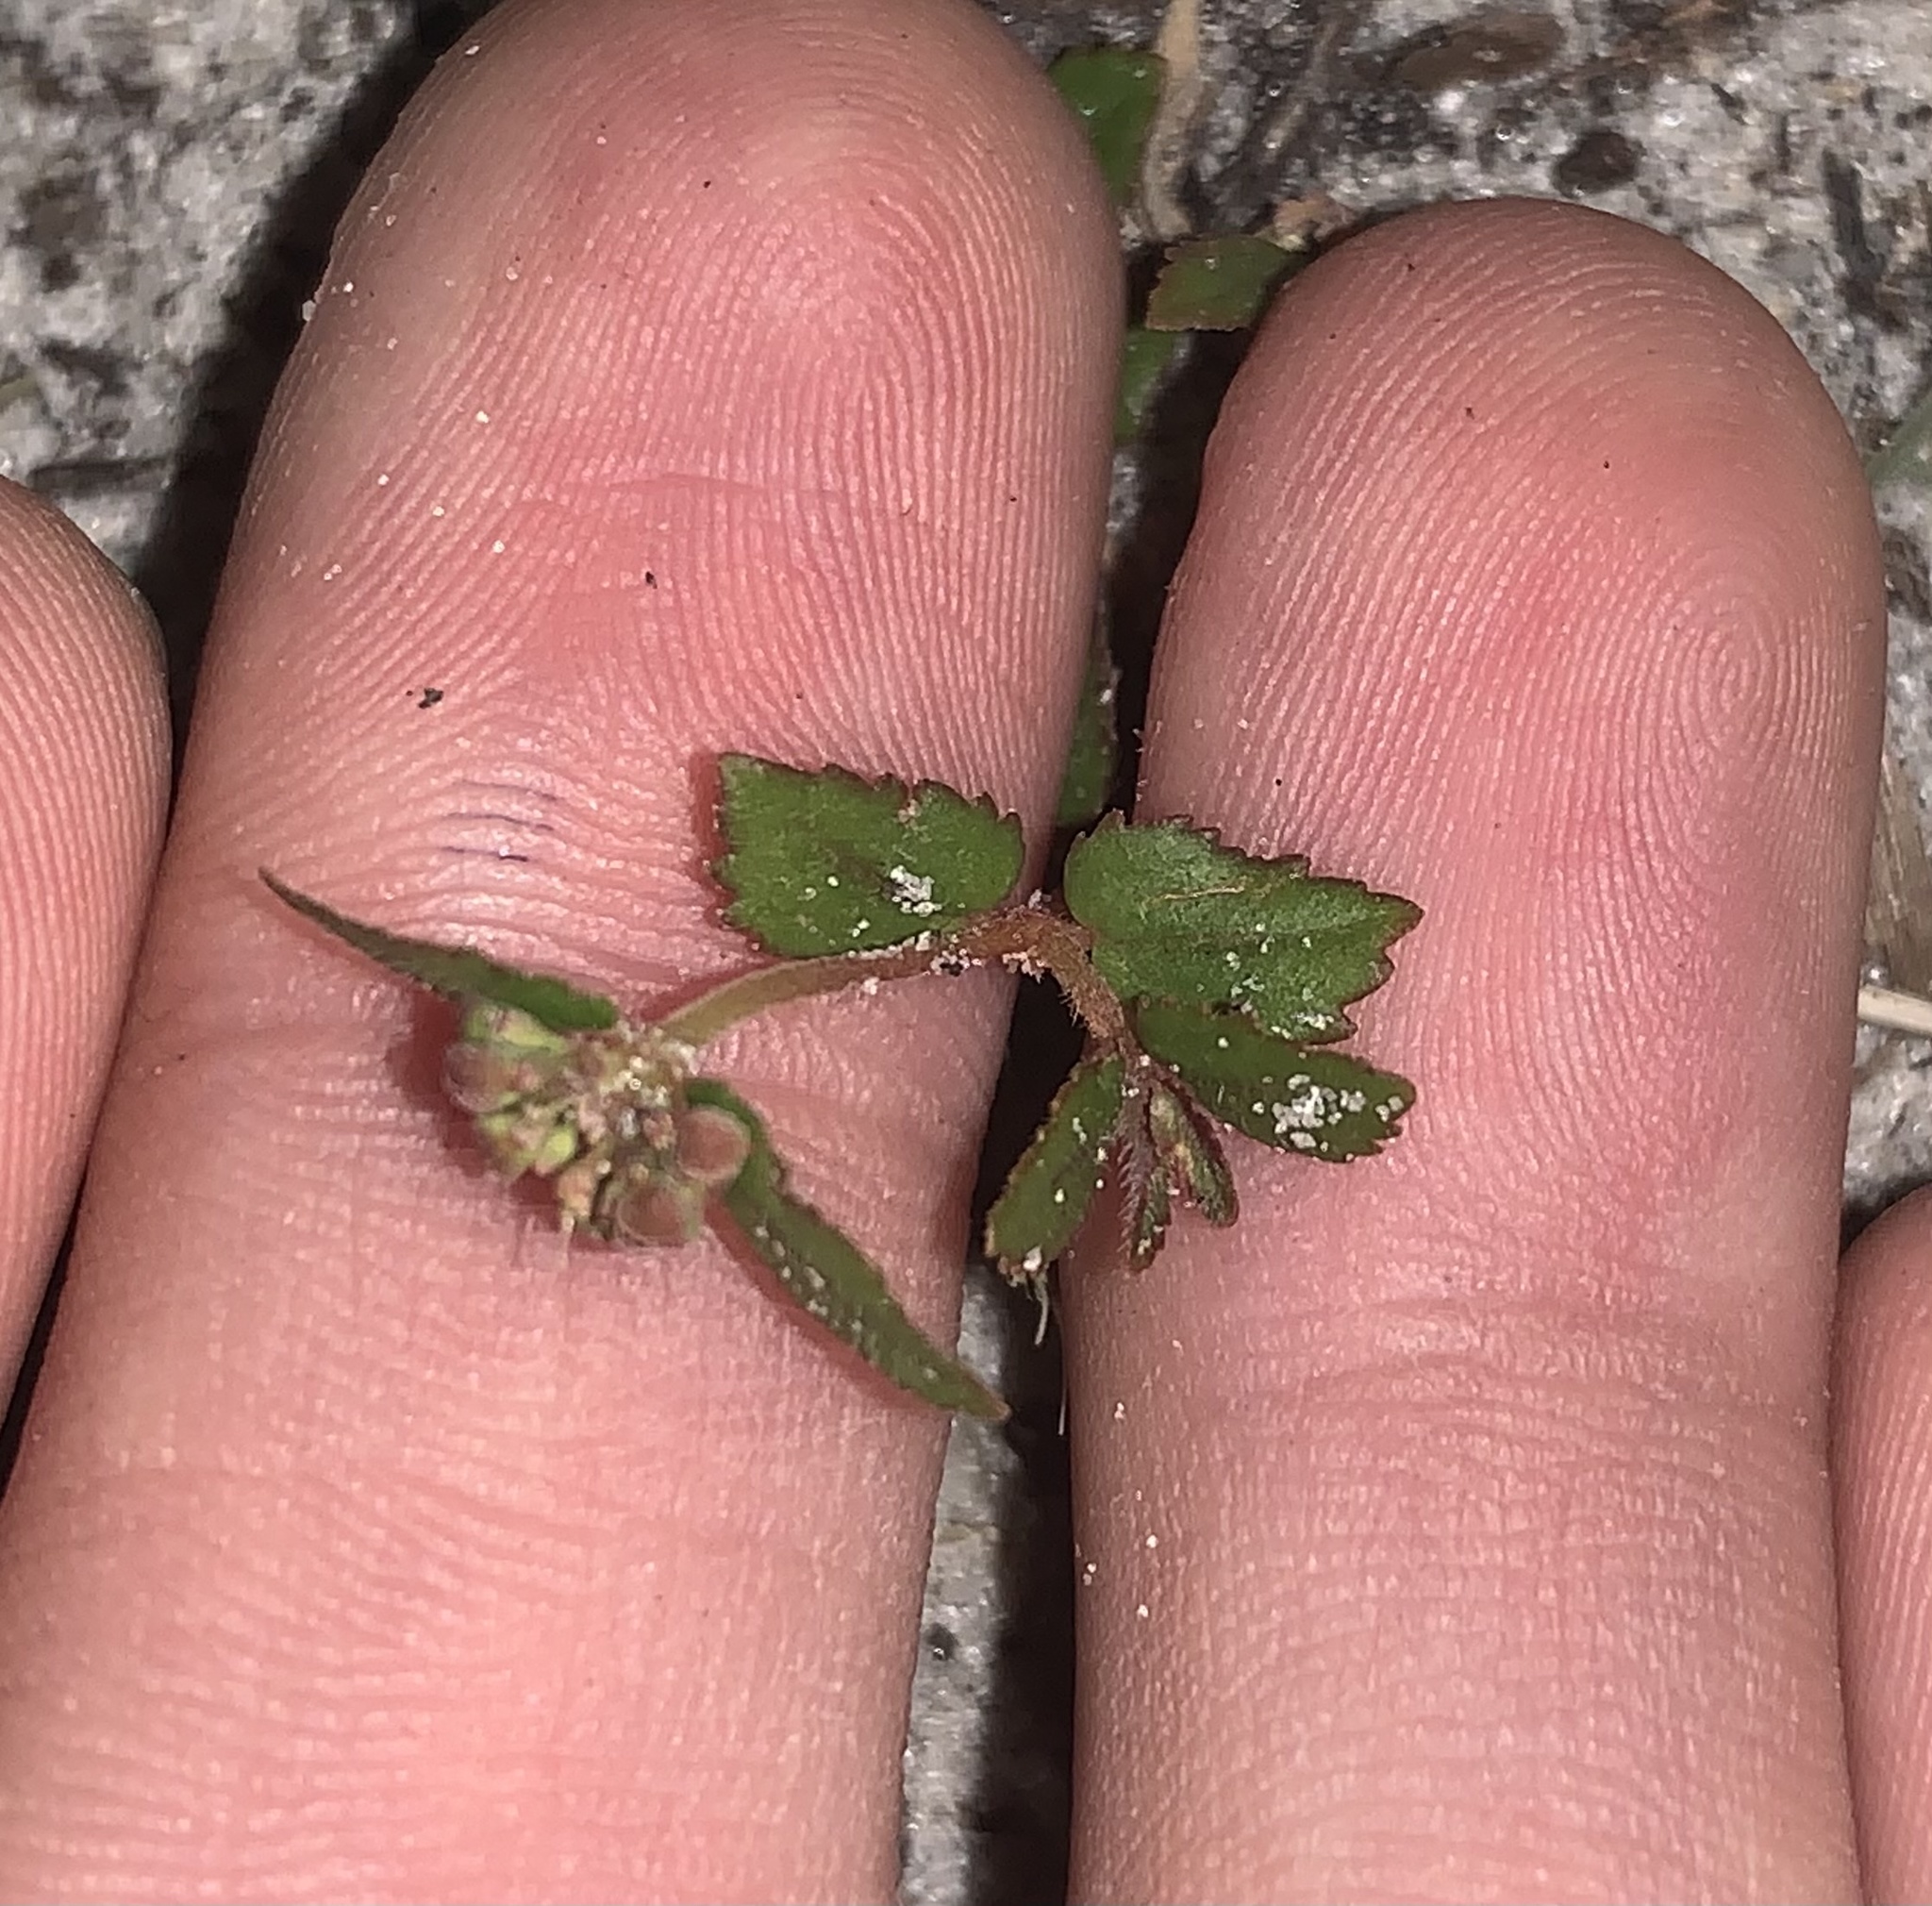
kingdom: Plantae
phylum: Tracheophyta
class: Magnoliopsida
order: Malpighiales
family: Euphorbiaceae
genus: Euphorbia
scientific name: Euphorbia ophthalmica
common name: Florida hammock sandmat
